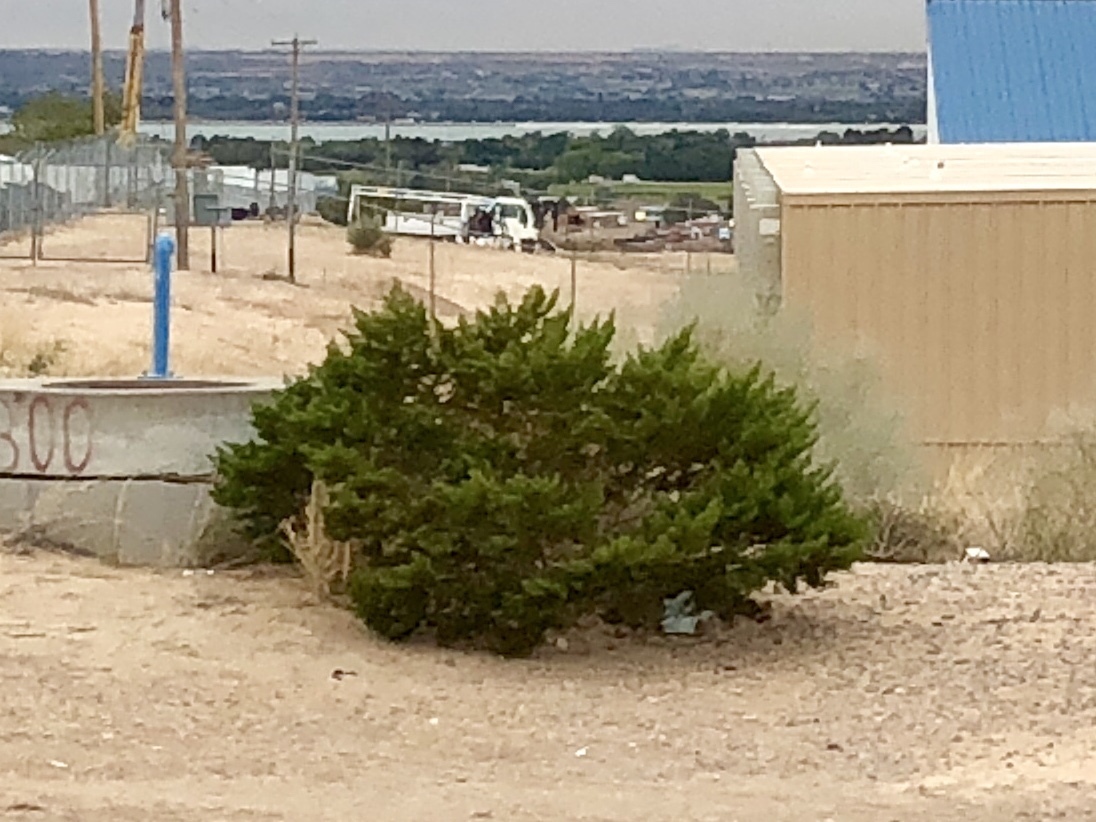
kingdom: Plantae
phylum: Tracheophyta
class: Magnoliopsida
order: Zygophyllales
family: Zygophyllaceae
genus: Larrea
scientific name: Larrea tridentata
